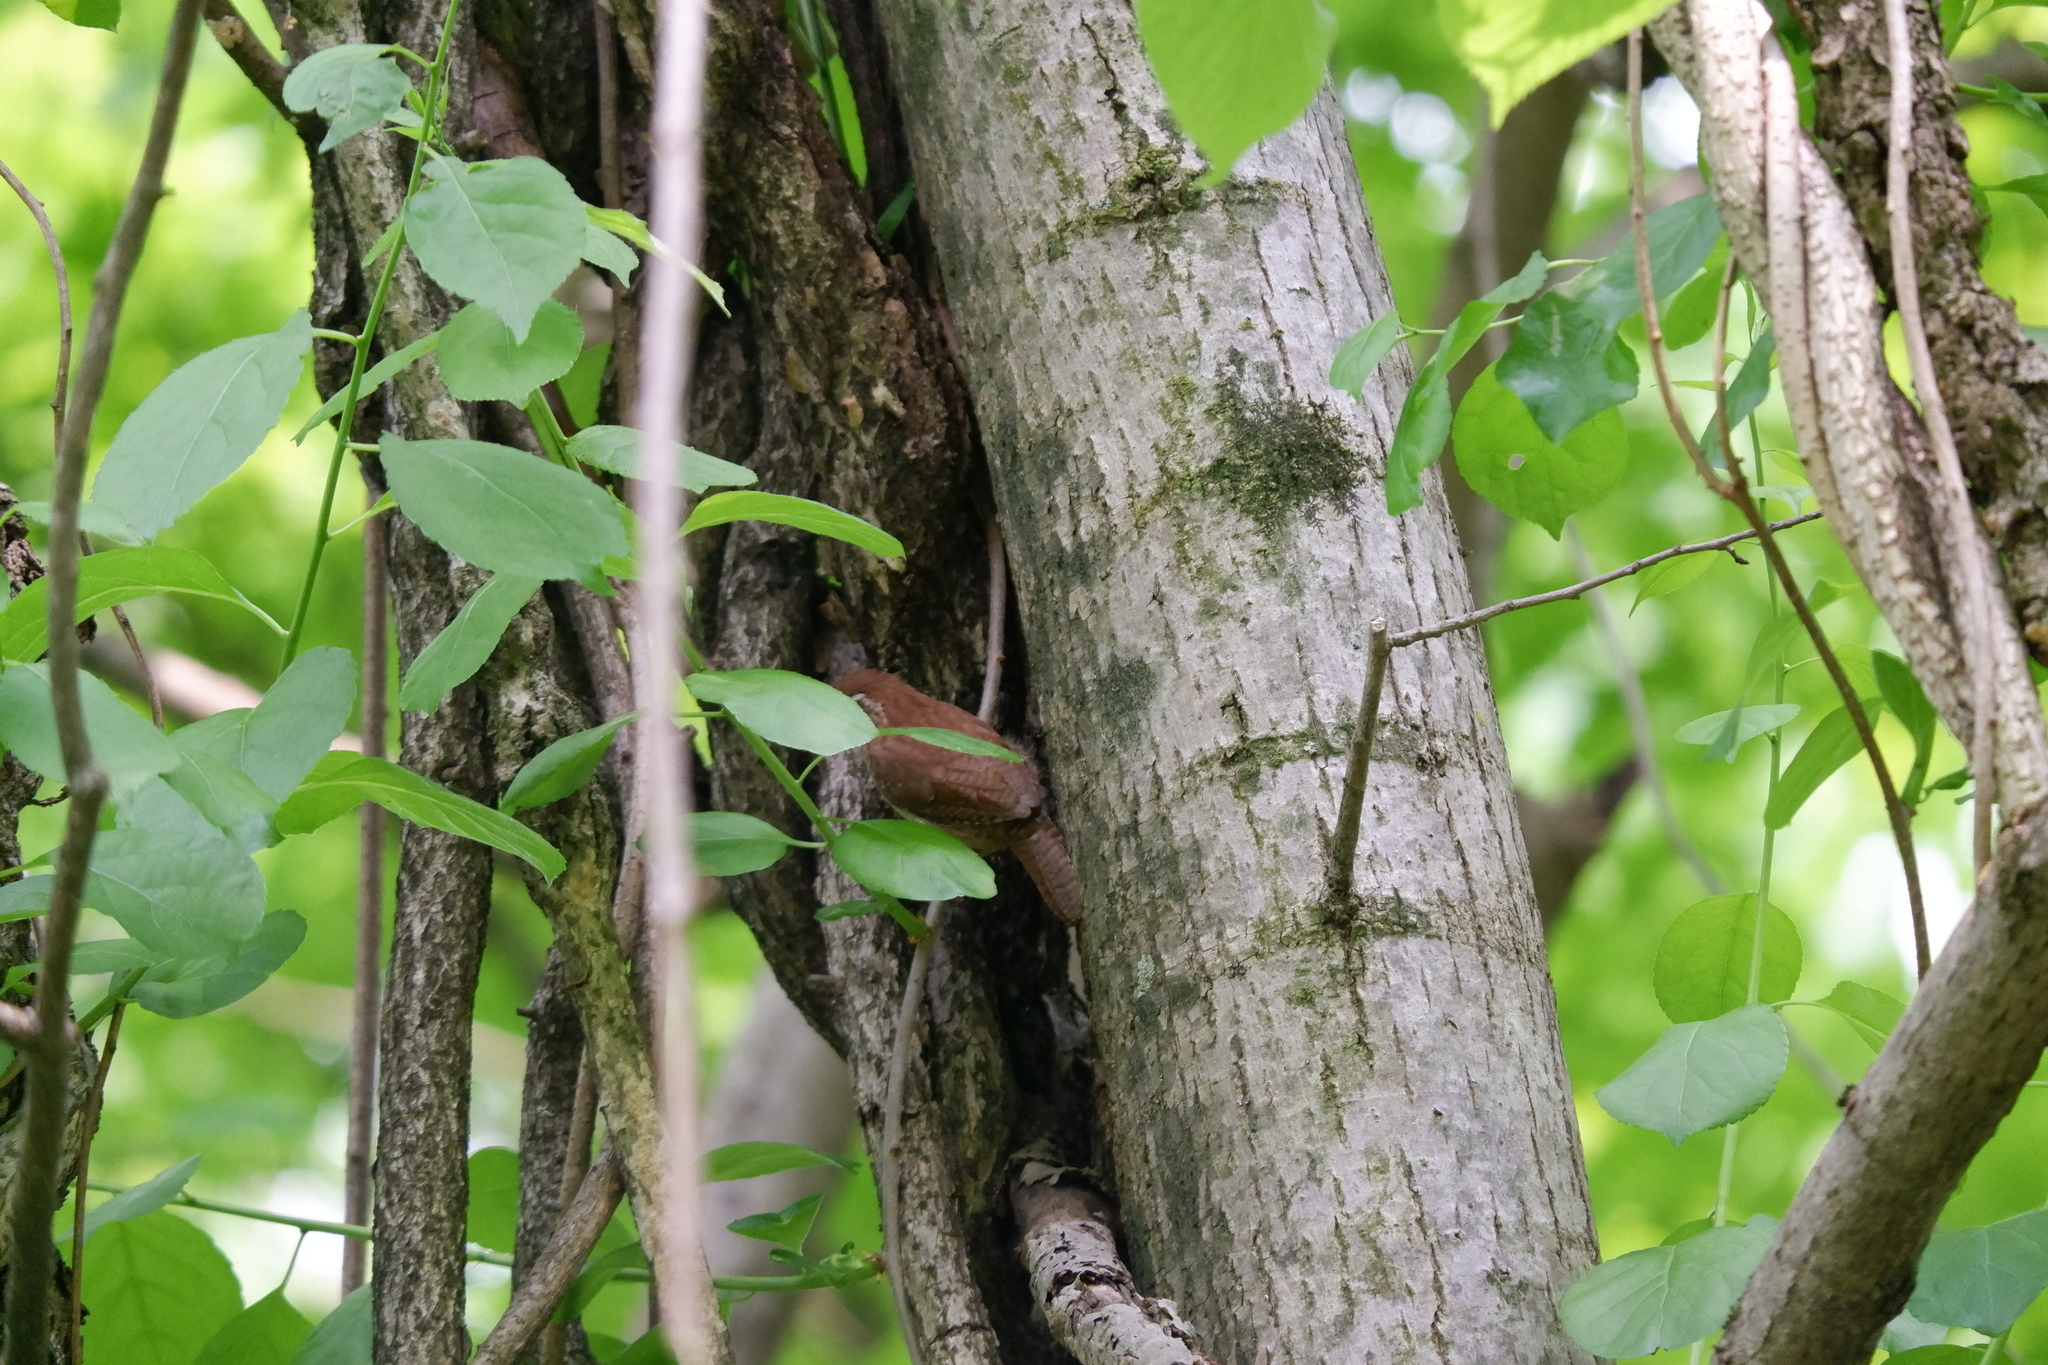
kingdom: Animalia
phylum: Chordata
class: Aves
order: Passeriformes
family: Troglodytidae
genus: Thryothorus
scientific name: Thryothorus ludovicianus
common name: Carolina wren
